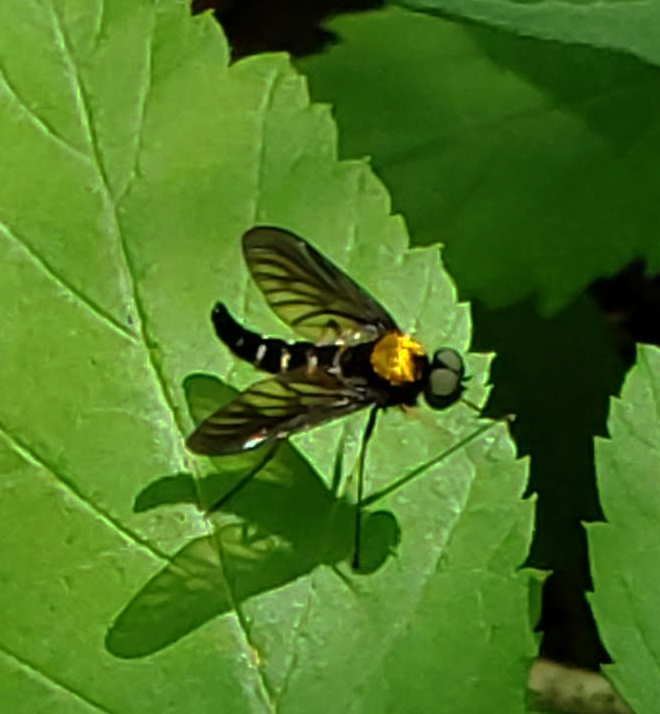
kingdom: Animalia
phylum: Arthropoda
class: Insecta
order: Diptera
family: Rhagionidae
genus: Chrysopilus
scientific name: Chrysopilus thoracicus
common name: Golden-backed snipe fly
